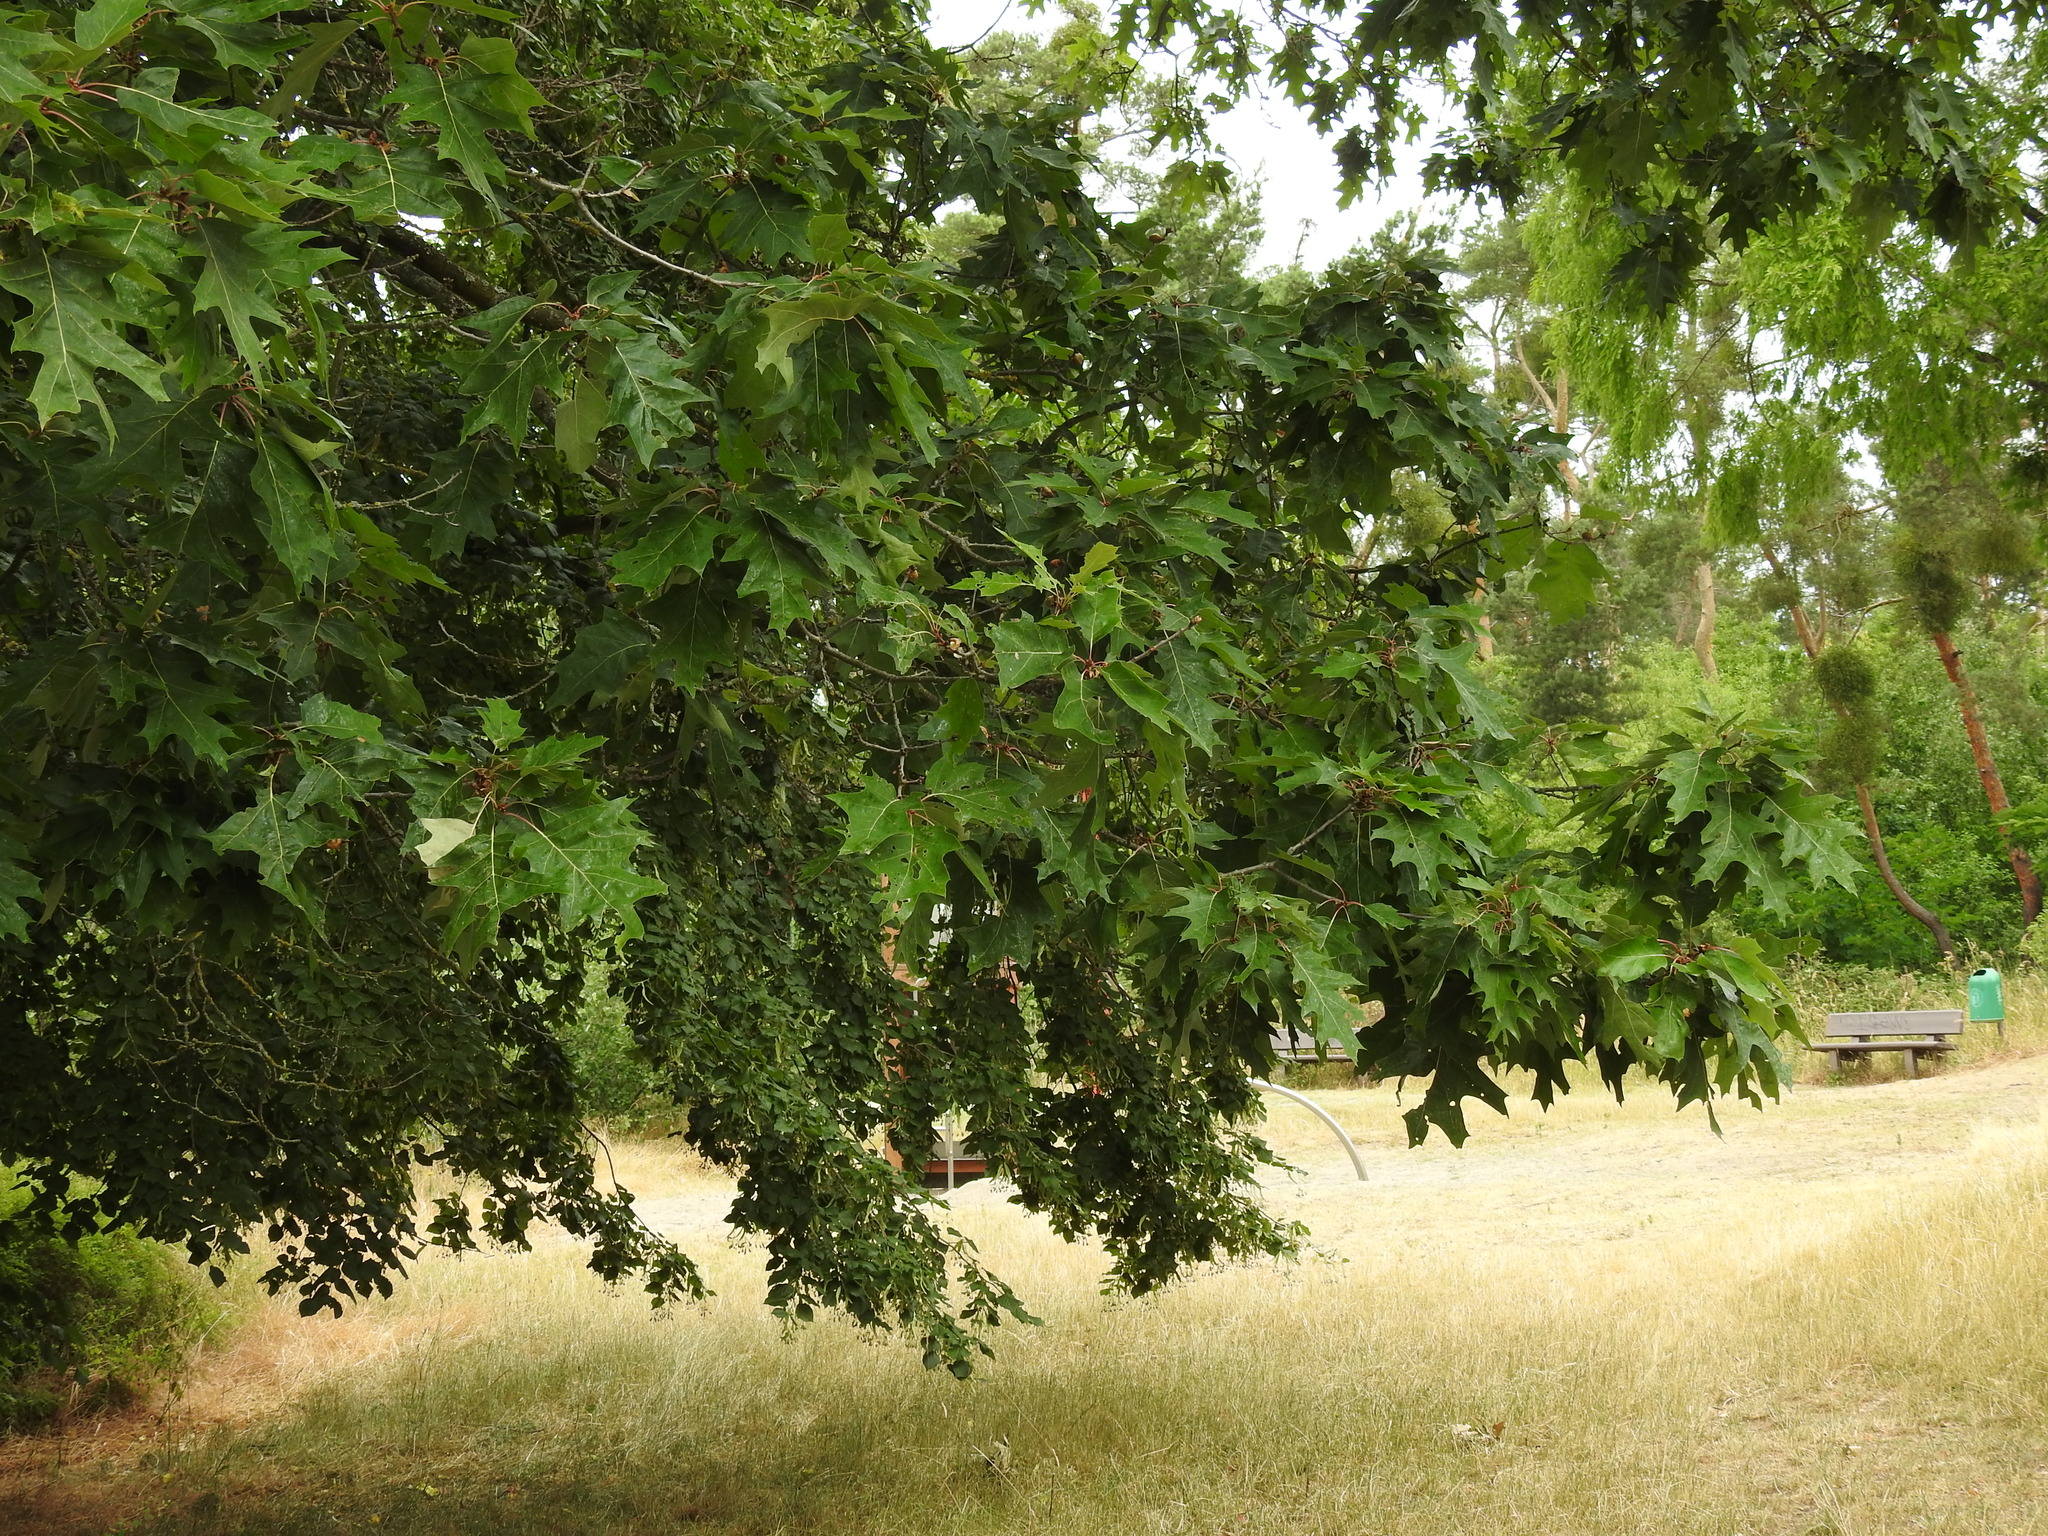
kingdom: Plantae
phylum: Tracheophyta
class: Magnoliopsida
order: Fagales
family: Fagaceae
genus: Quercus
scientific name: Quercus rubra
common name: Red oak
